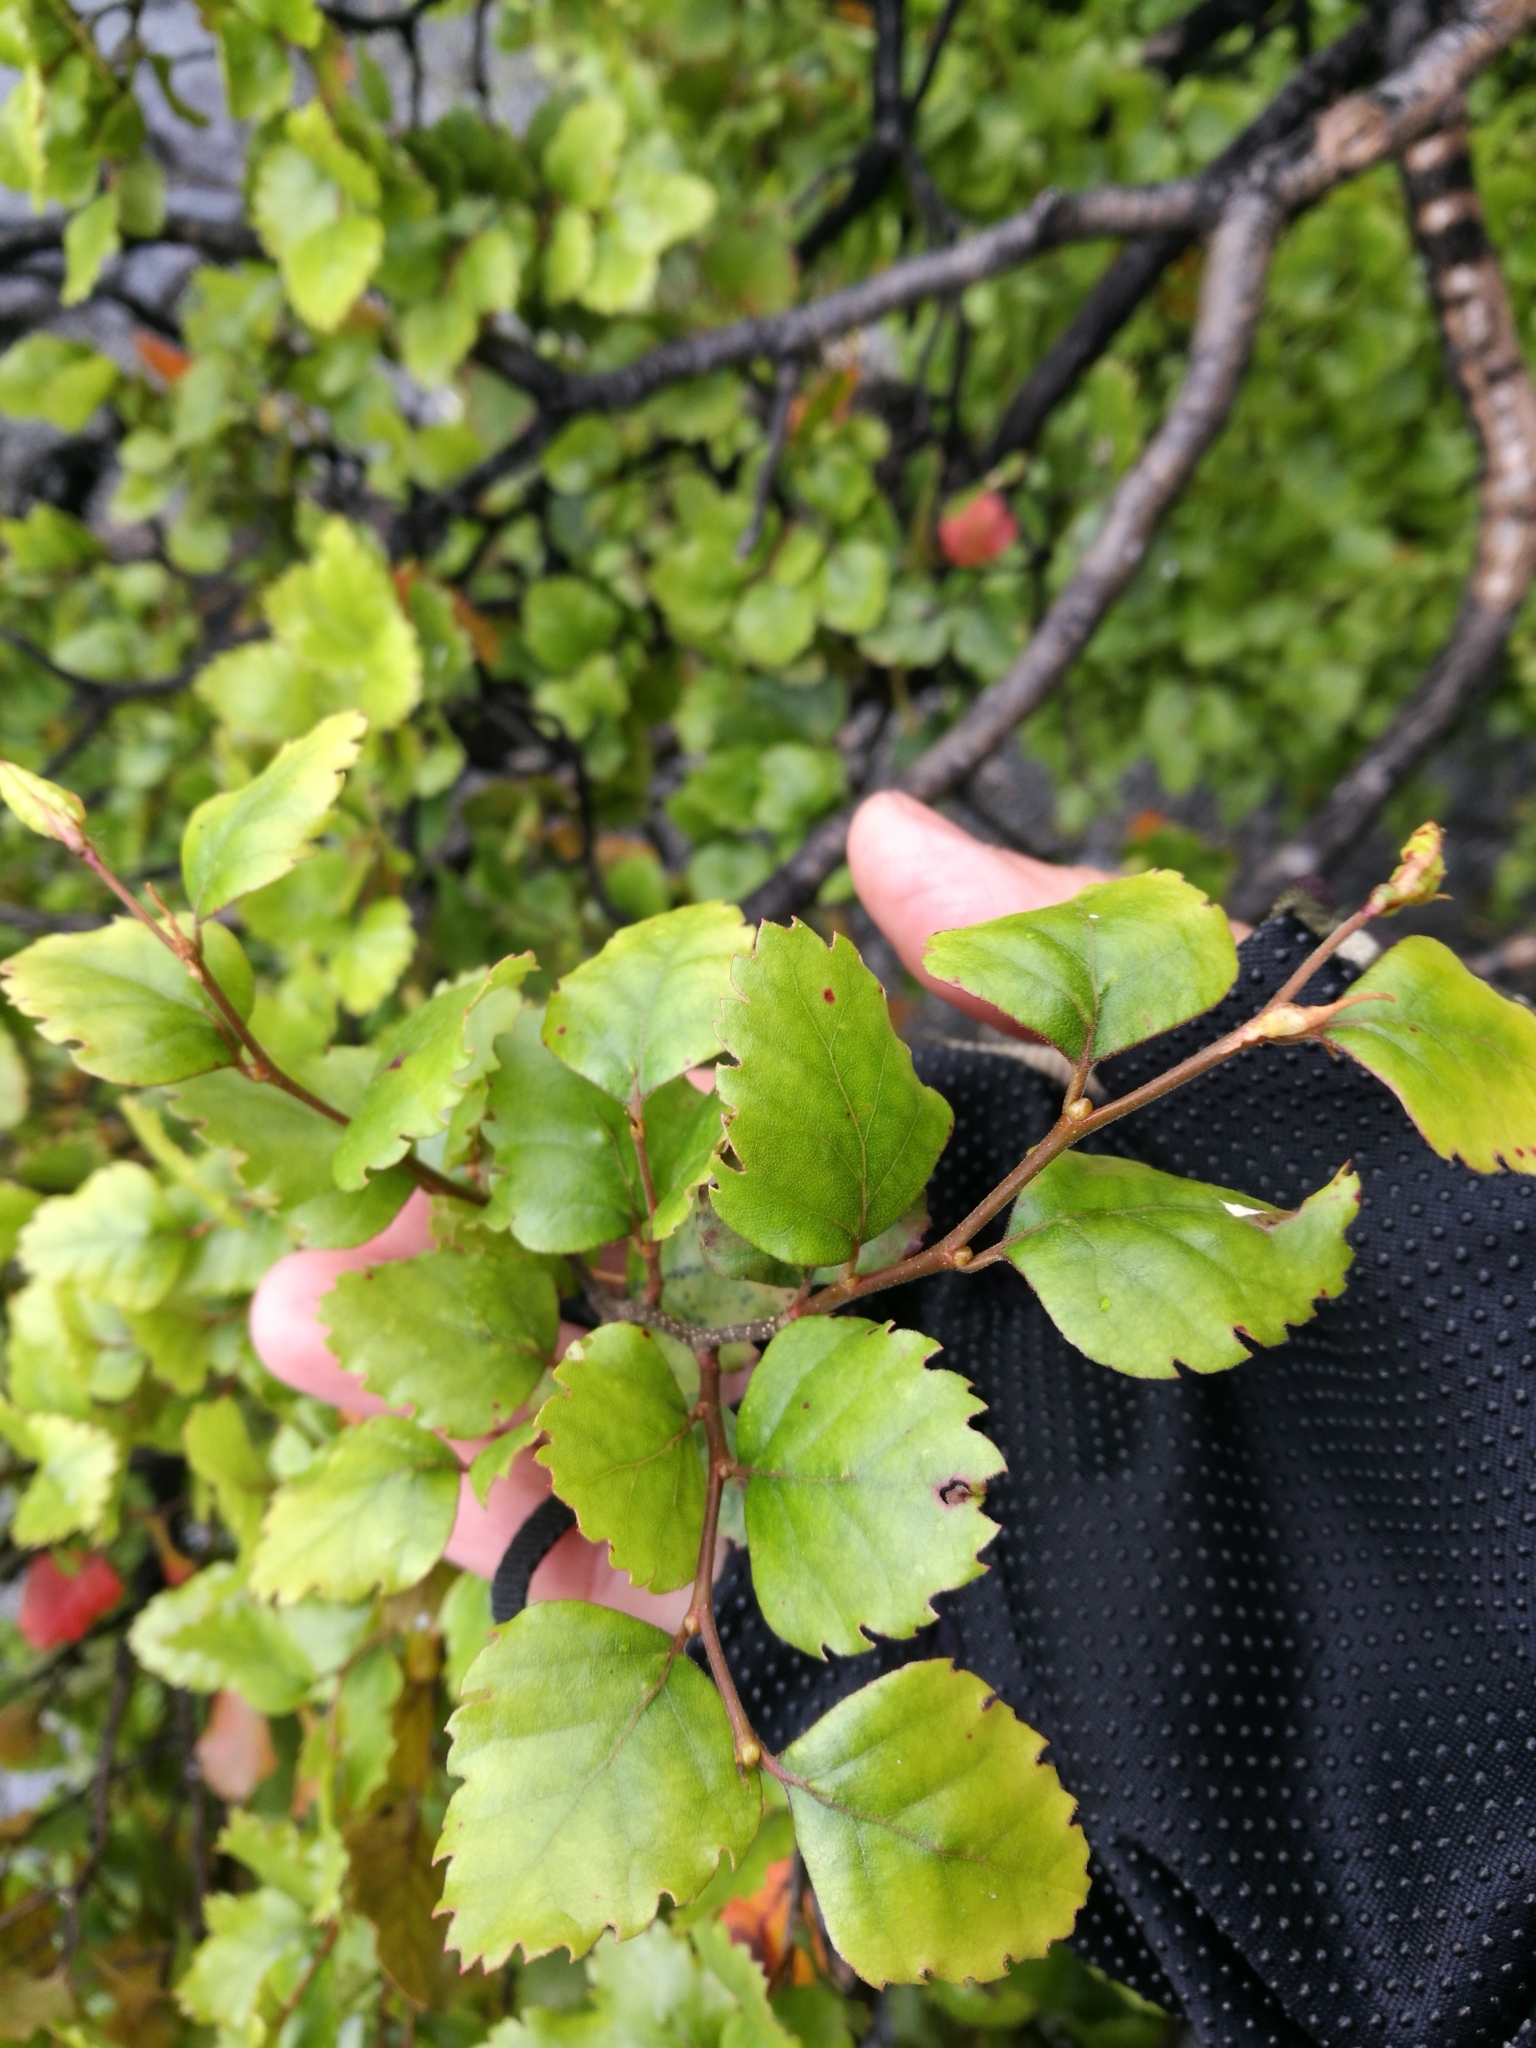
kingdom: Plantae
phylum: Tracheophyta
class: Magnoliopsida
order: Fagales
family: Nothofagaceae
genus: Nothofagus
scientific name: Nothofagus fusca
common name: Red beech
